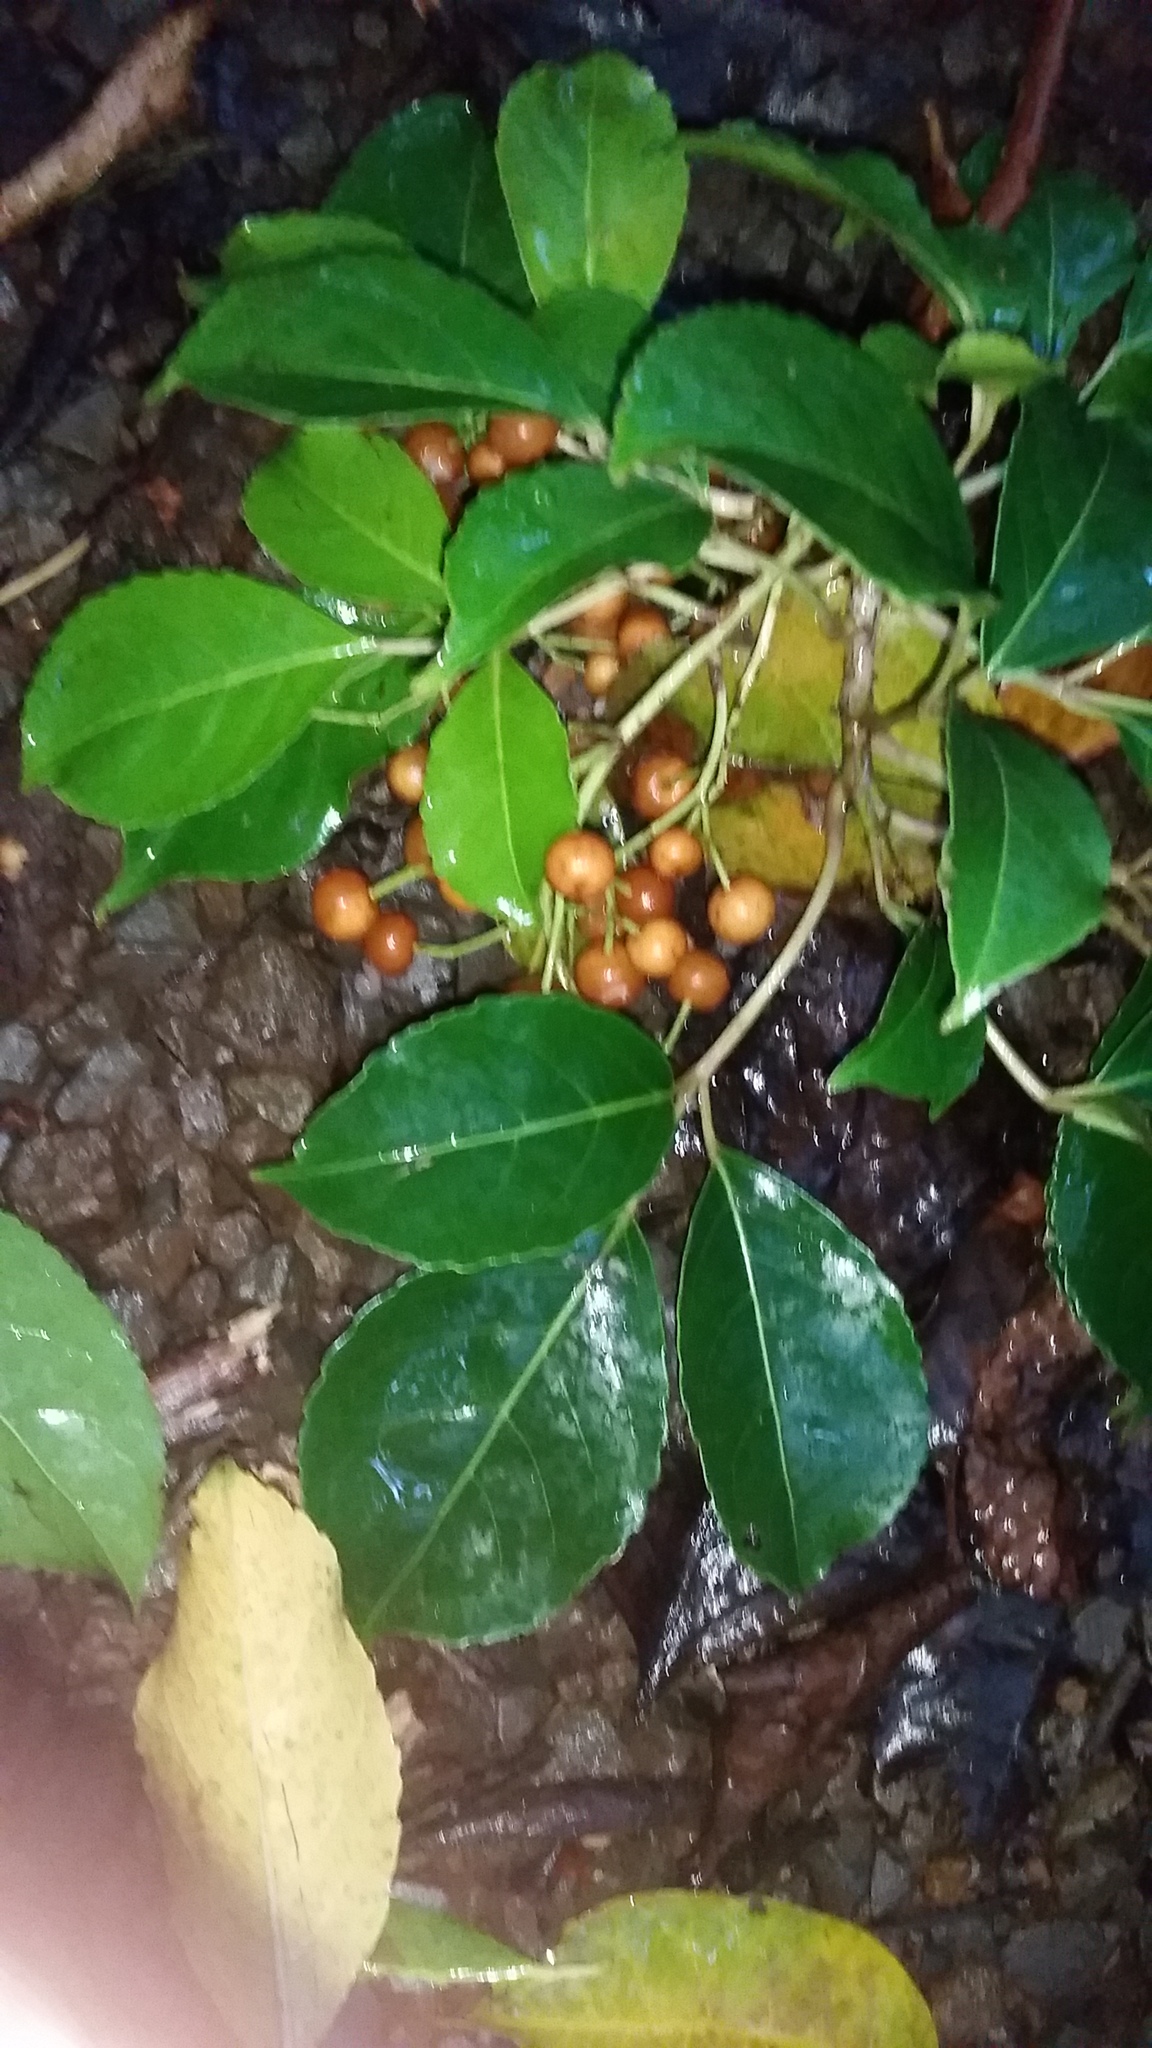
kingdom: Plantae
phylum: Tracheophyta
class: Magnoliopsida
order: Malpighiales
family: Phyllanthaceae
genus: Bischofia
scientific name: Bischofia javanica
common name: Javanese bishopwood
